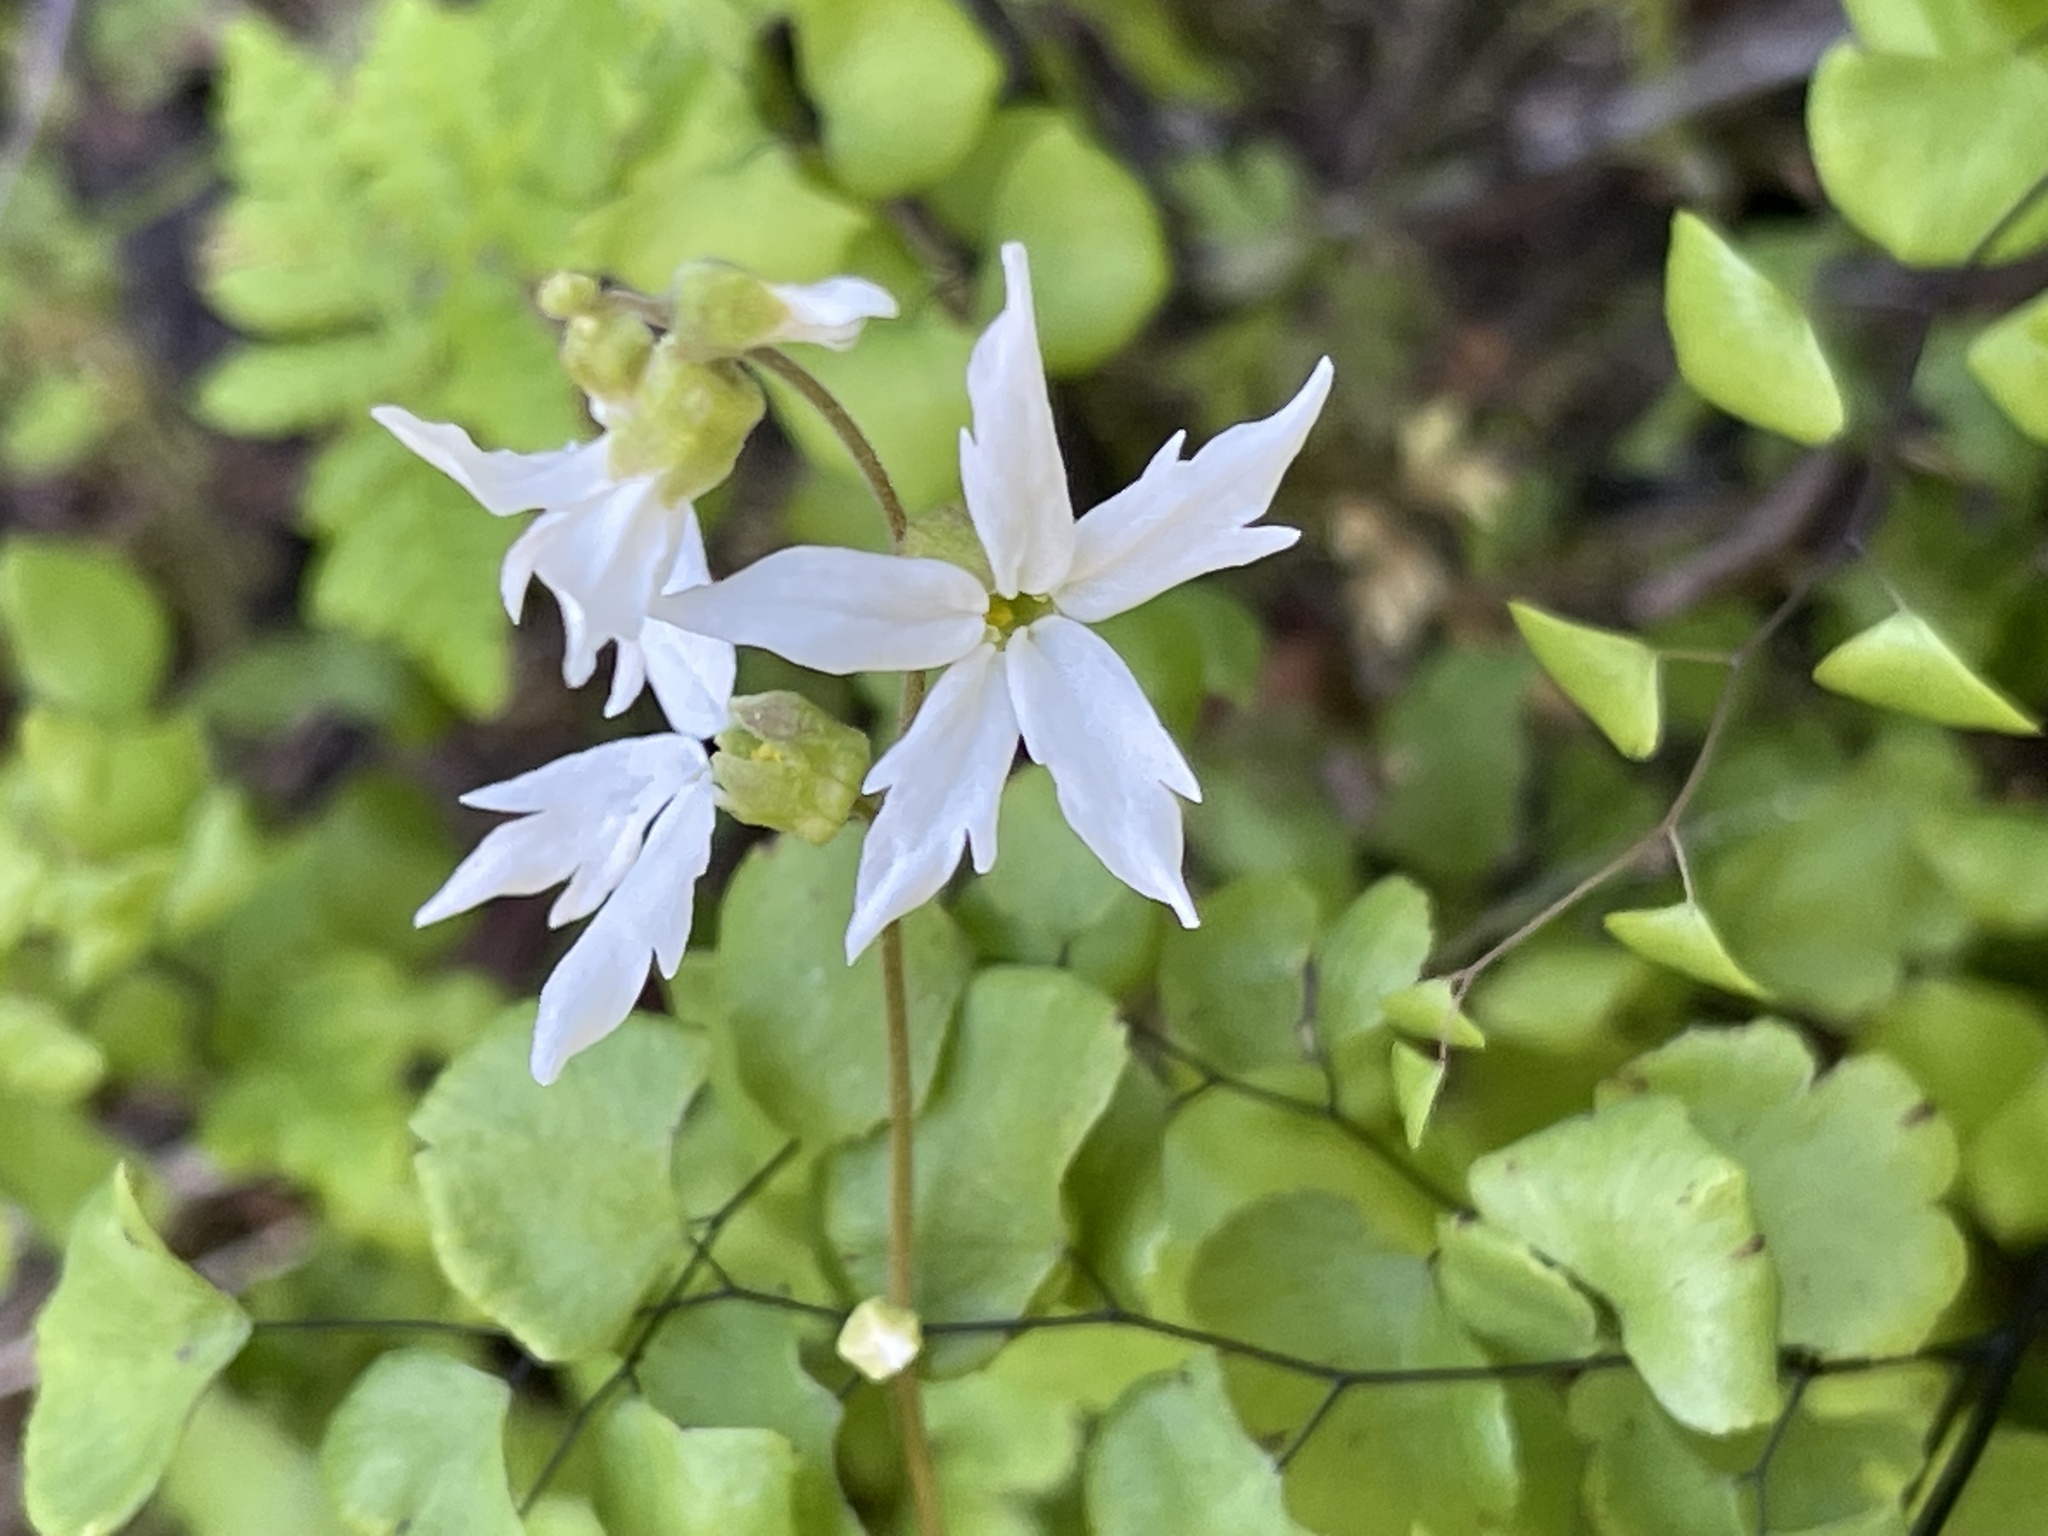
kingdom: Plantae
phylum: Tracheophyta
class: Magnoliopsida
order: Saxifragales
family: Saxifragaceae
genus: Lithophragma
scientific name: Lithophragma heterophyllum
